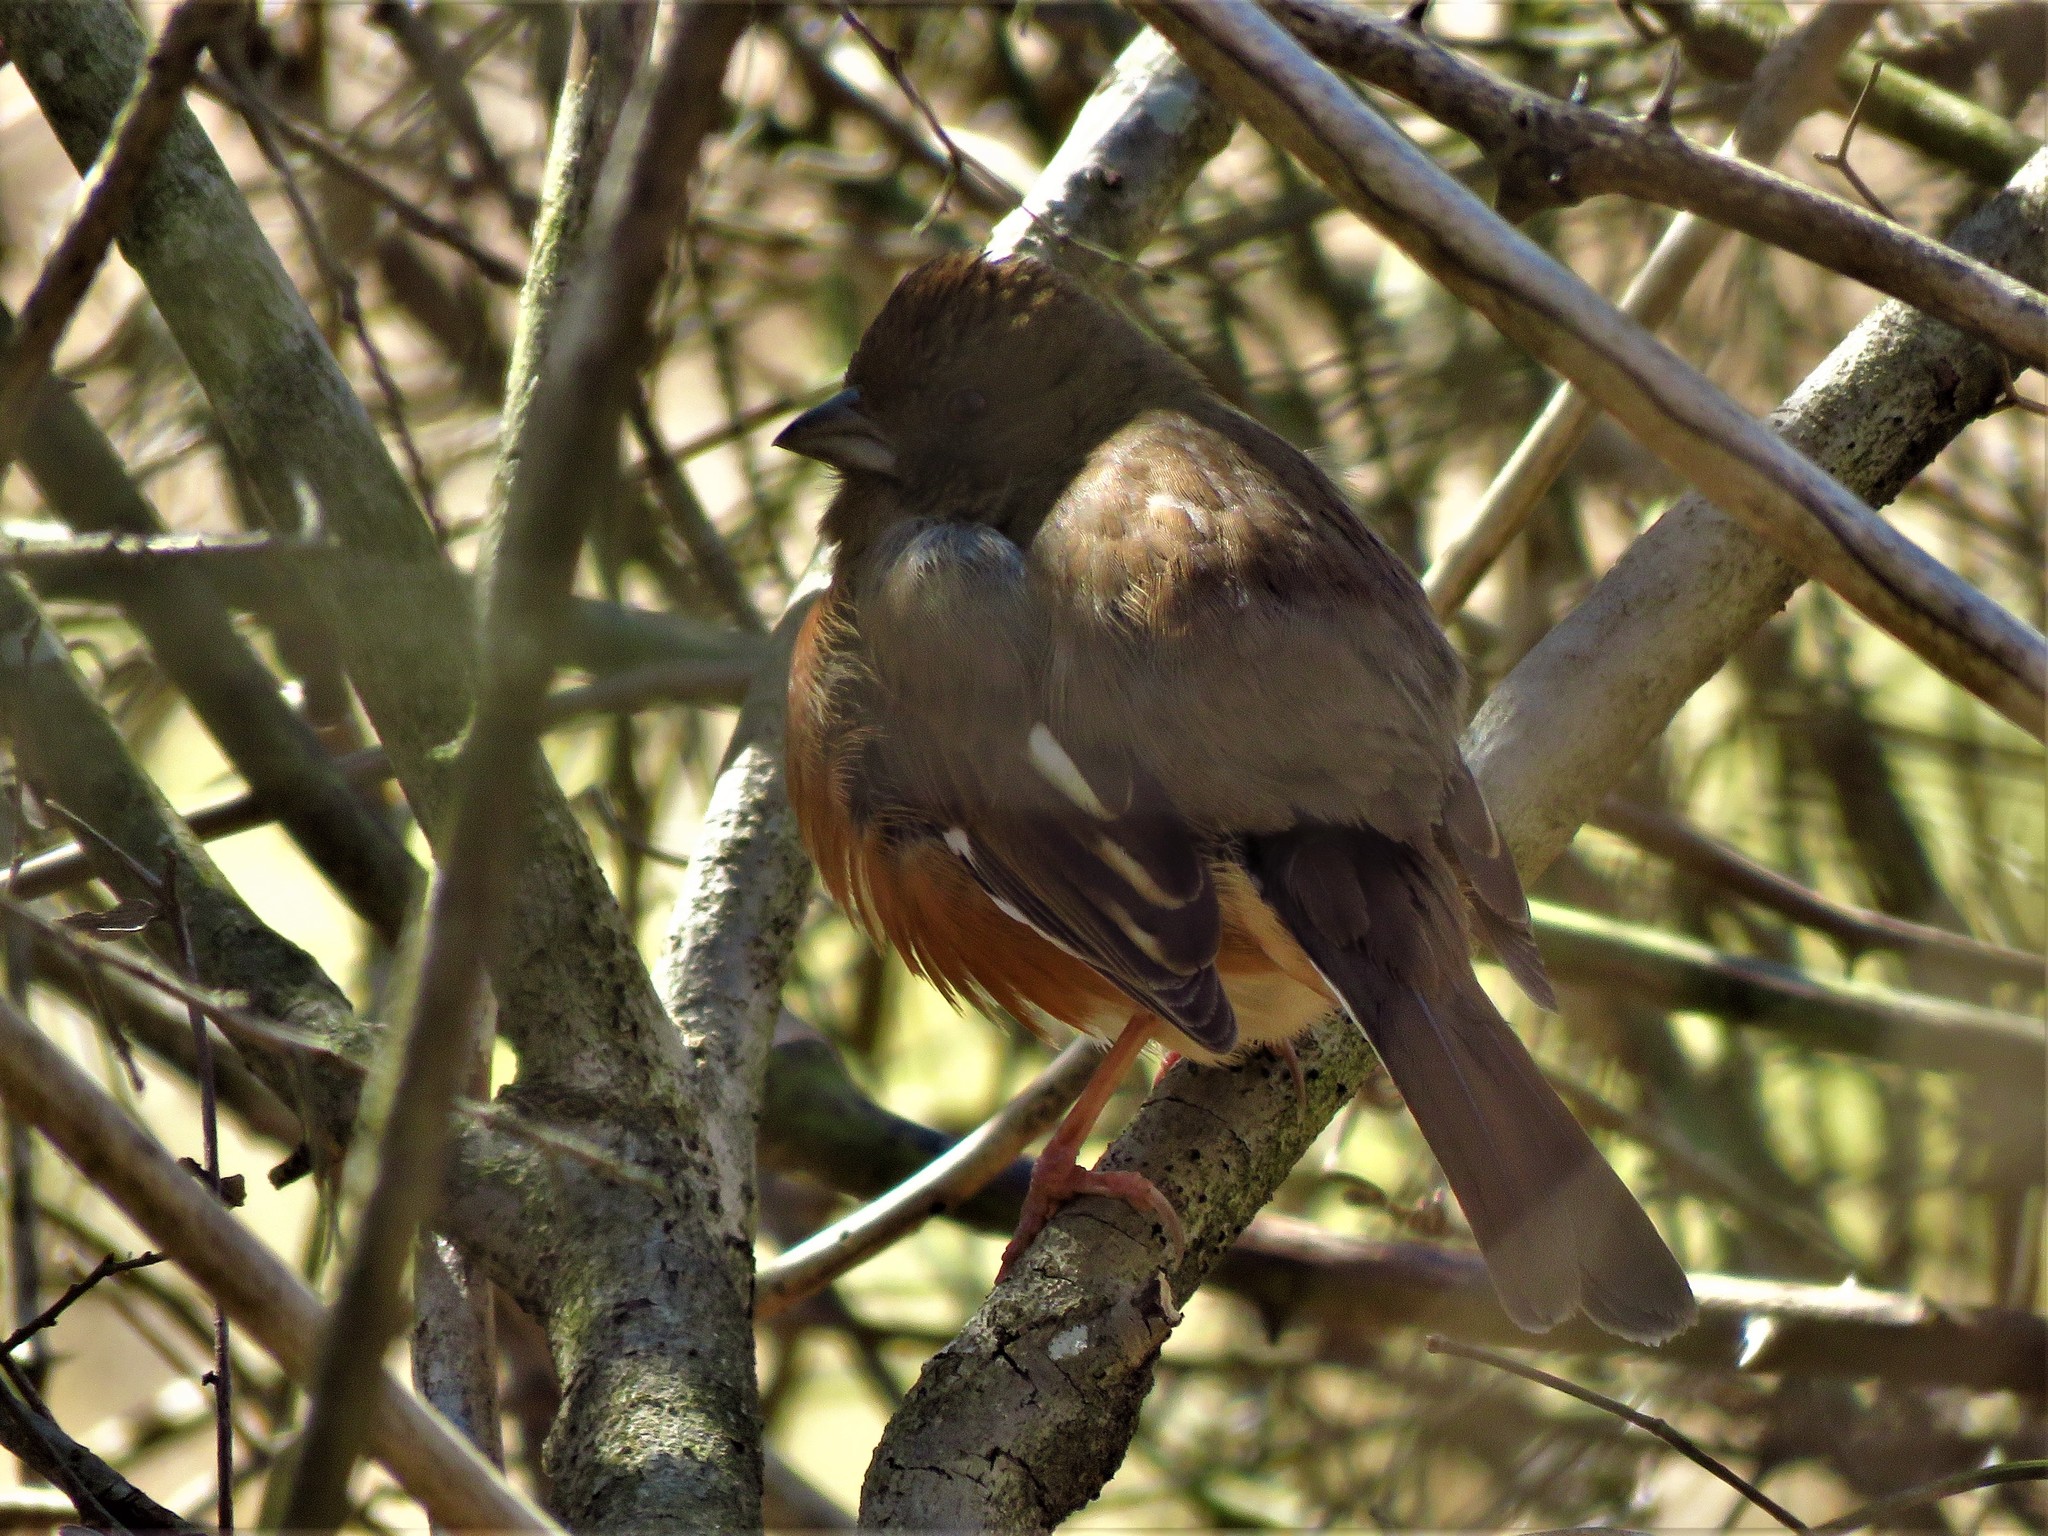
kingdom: Animalia
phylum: Chordata
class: Aves
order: Passeriformes
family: Passerellidae
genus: Pipilo
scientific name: Pipilo erythrophthalmus
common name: Eastern towhee
